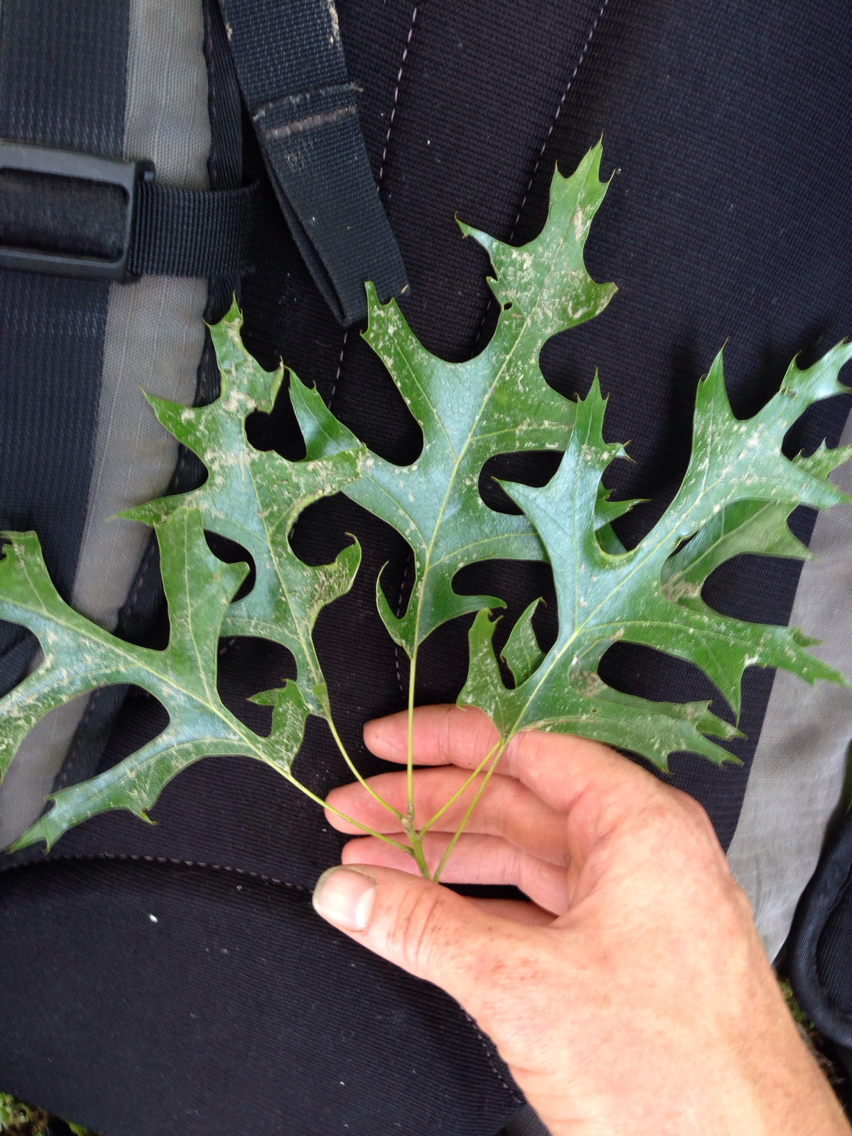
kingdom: Plantae
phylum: Tracheophyta
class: Magnoliopsida
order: Fagales
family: Fagaceae
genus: Quercus
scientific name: Quercus coccinea
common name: Scarlet oak
